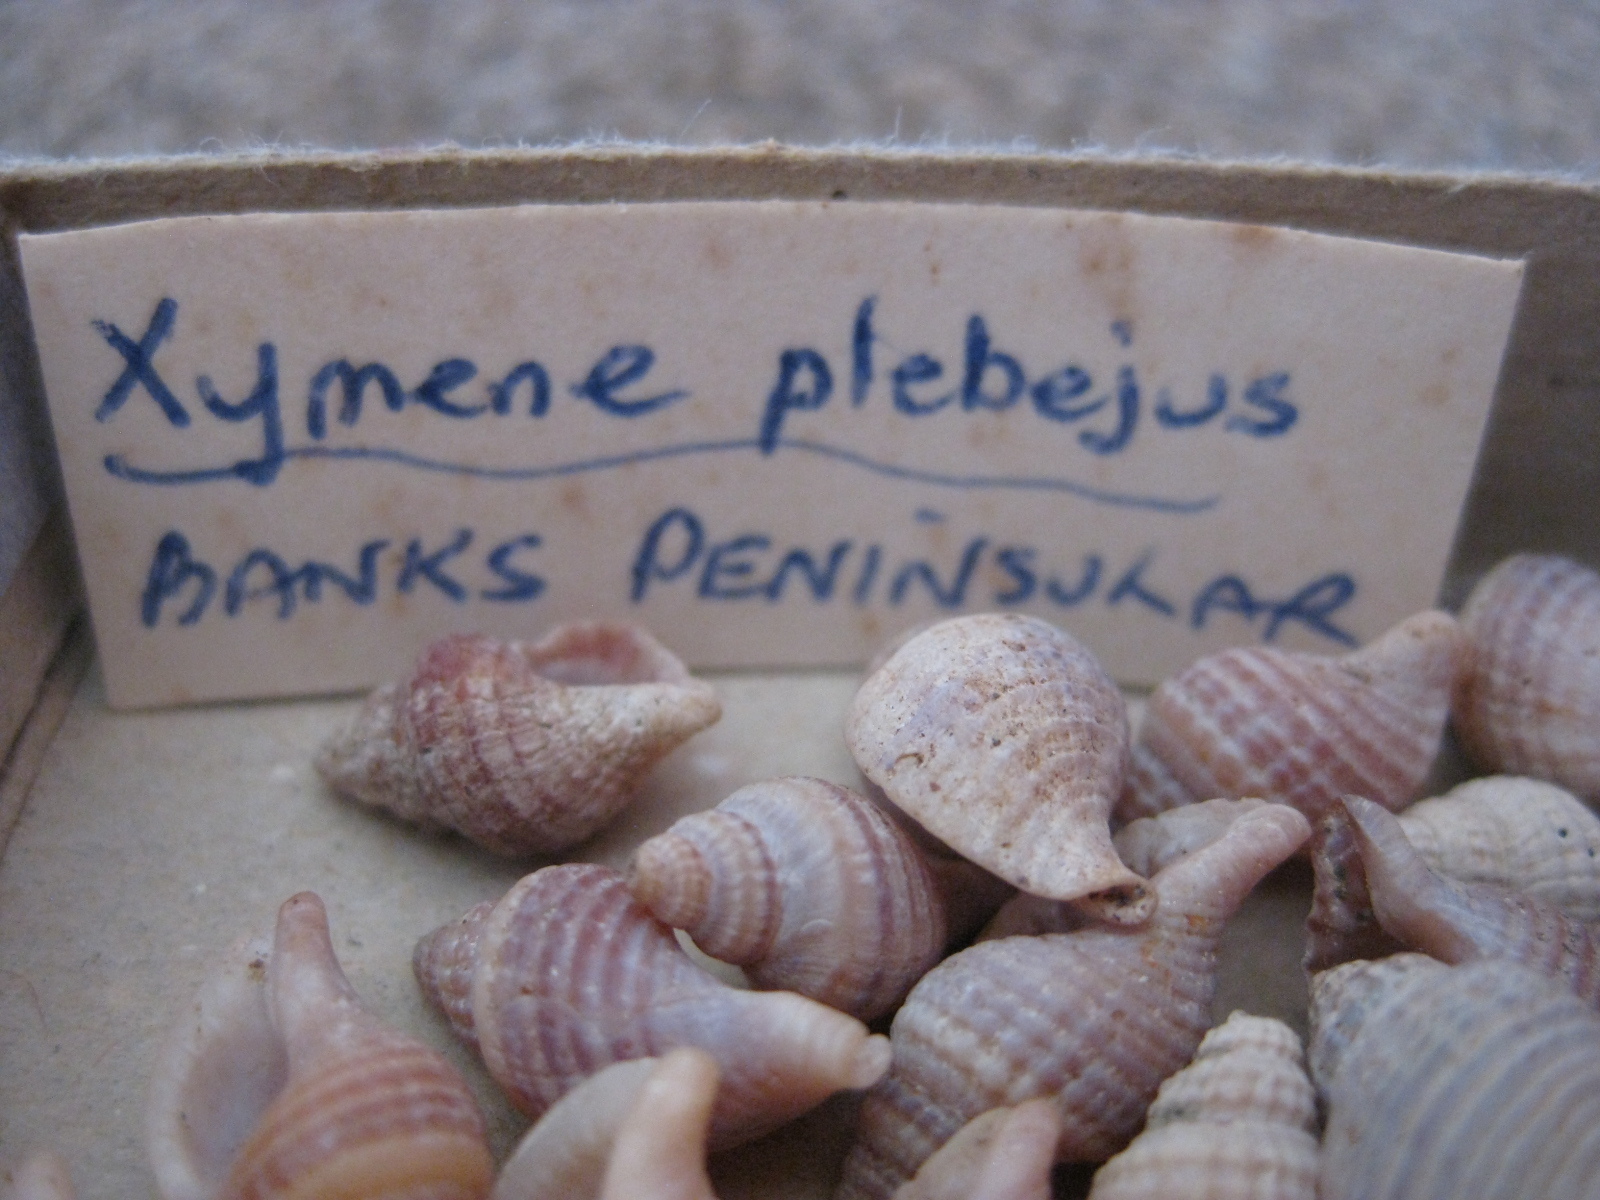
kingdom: Animalia
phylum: Mollusca
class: Gastropoda
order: Neogastropoda
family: Muricidae
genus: Xymene
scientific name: Xymene plebeius
